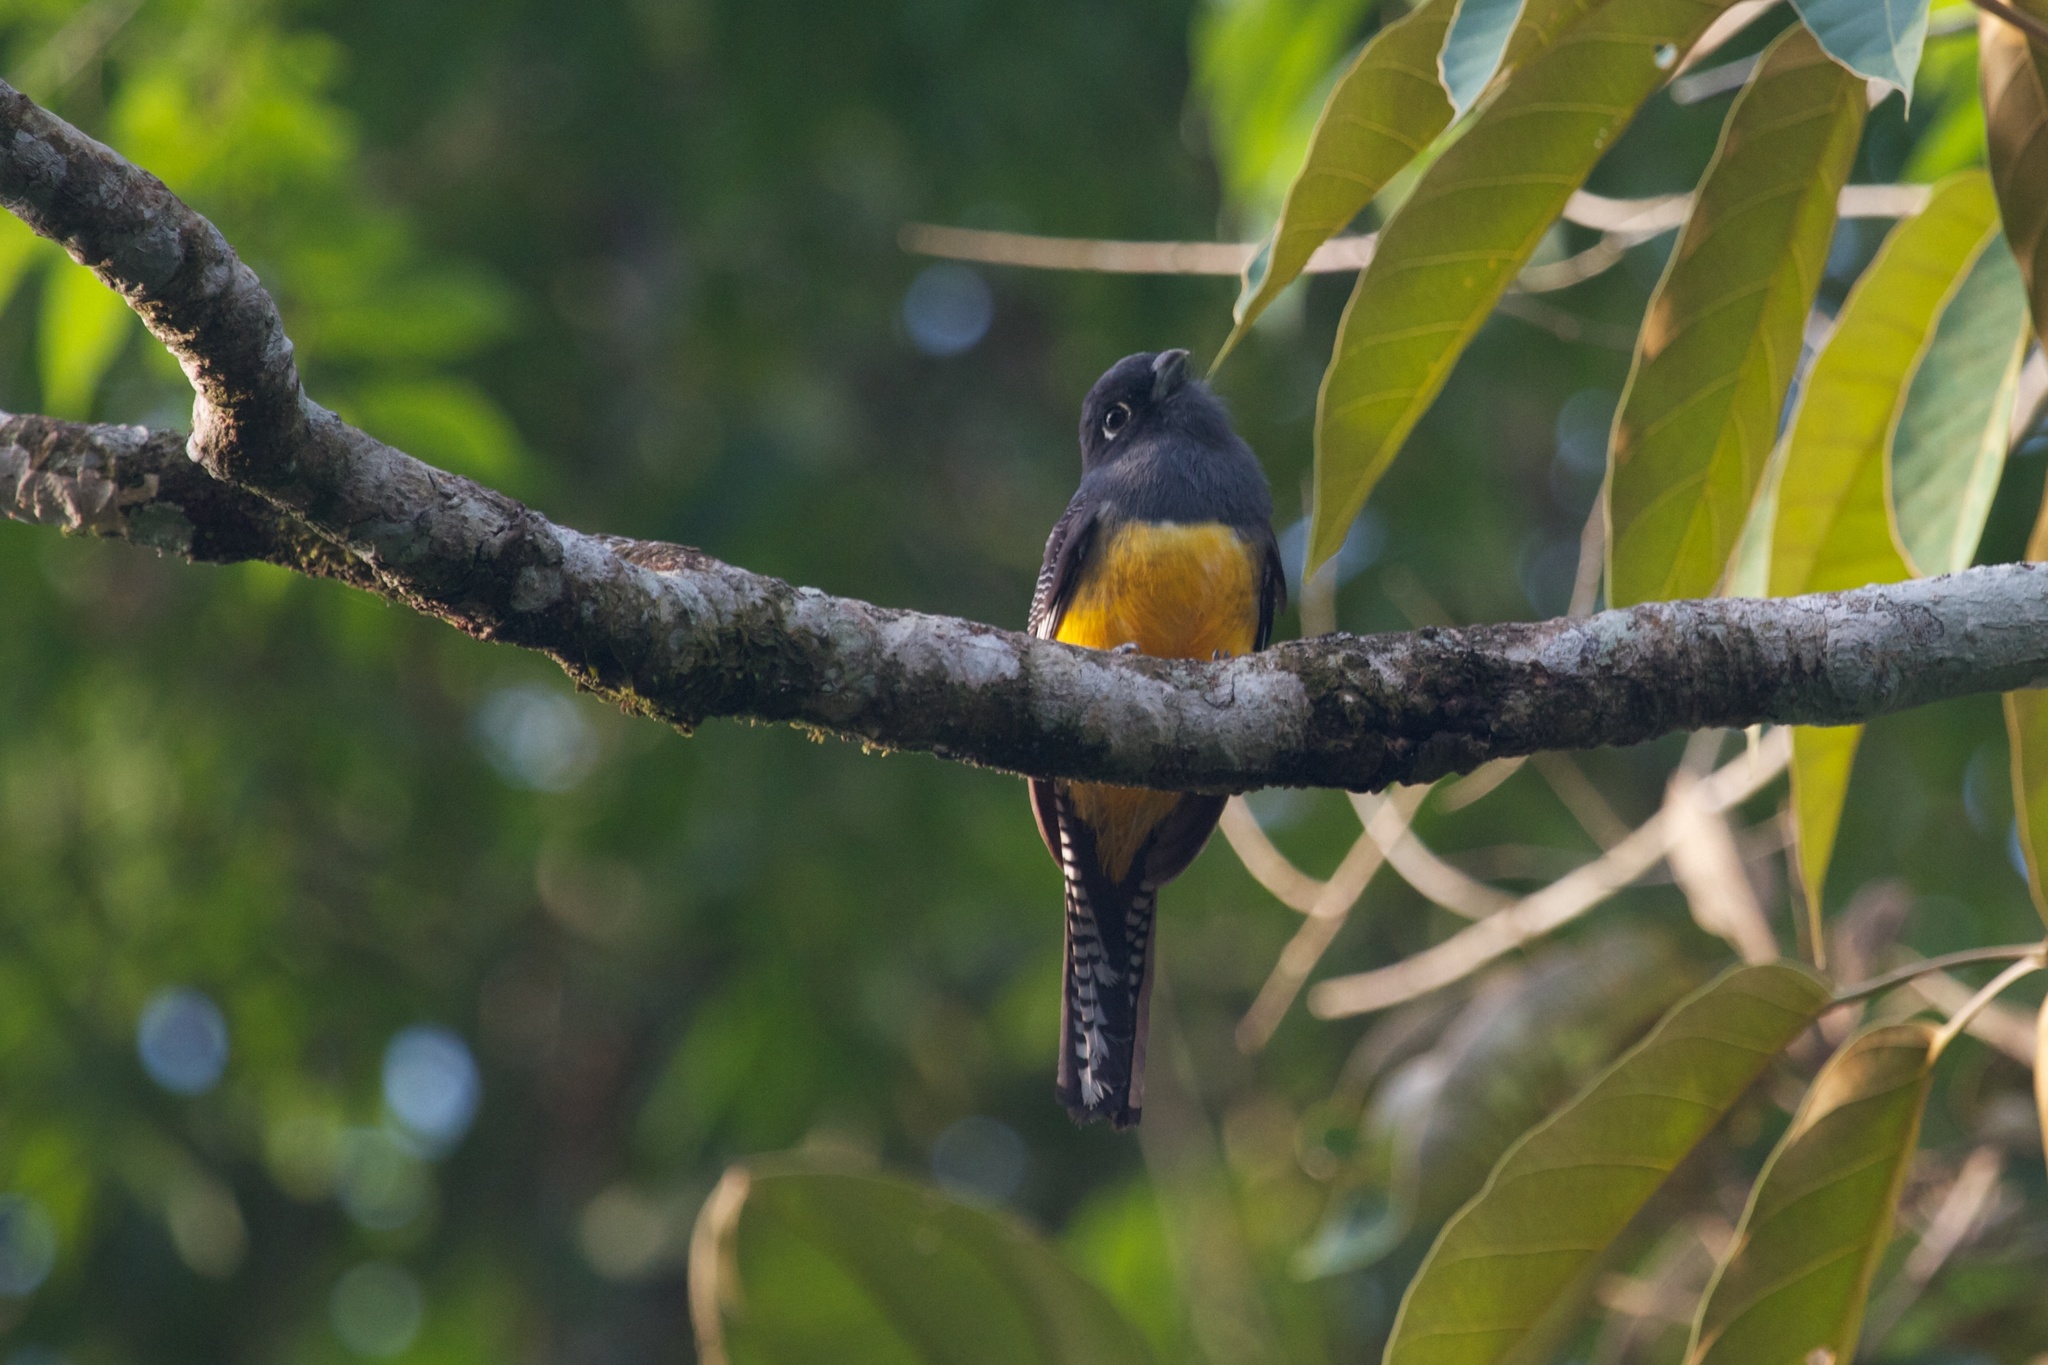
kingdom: Animalia
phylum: Chordata
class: Aves
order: Trogoniformes
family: Trogonidae
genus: Trogon
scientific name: Trogon caligatus
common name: Gartered trogon
